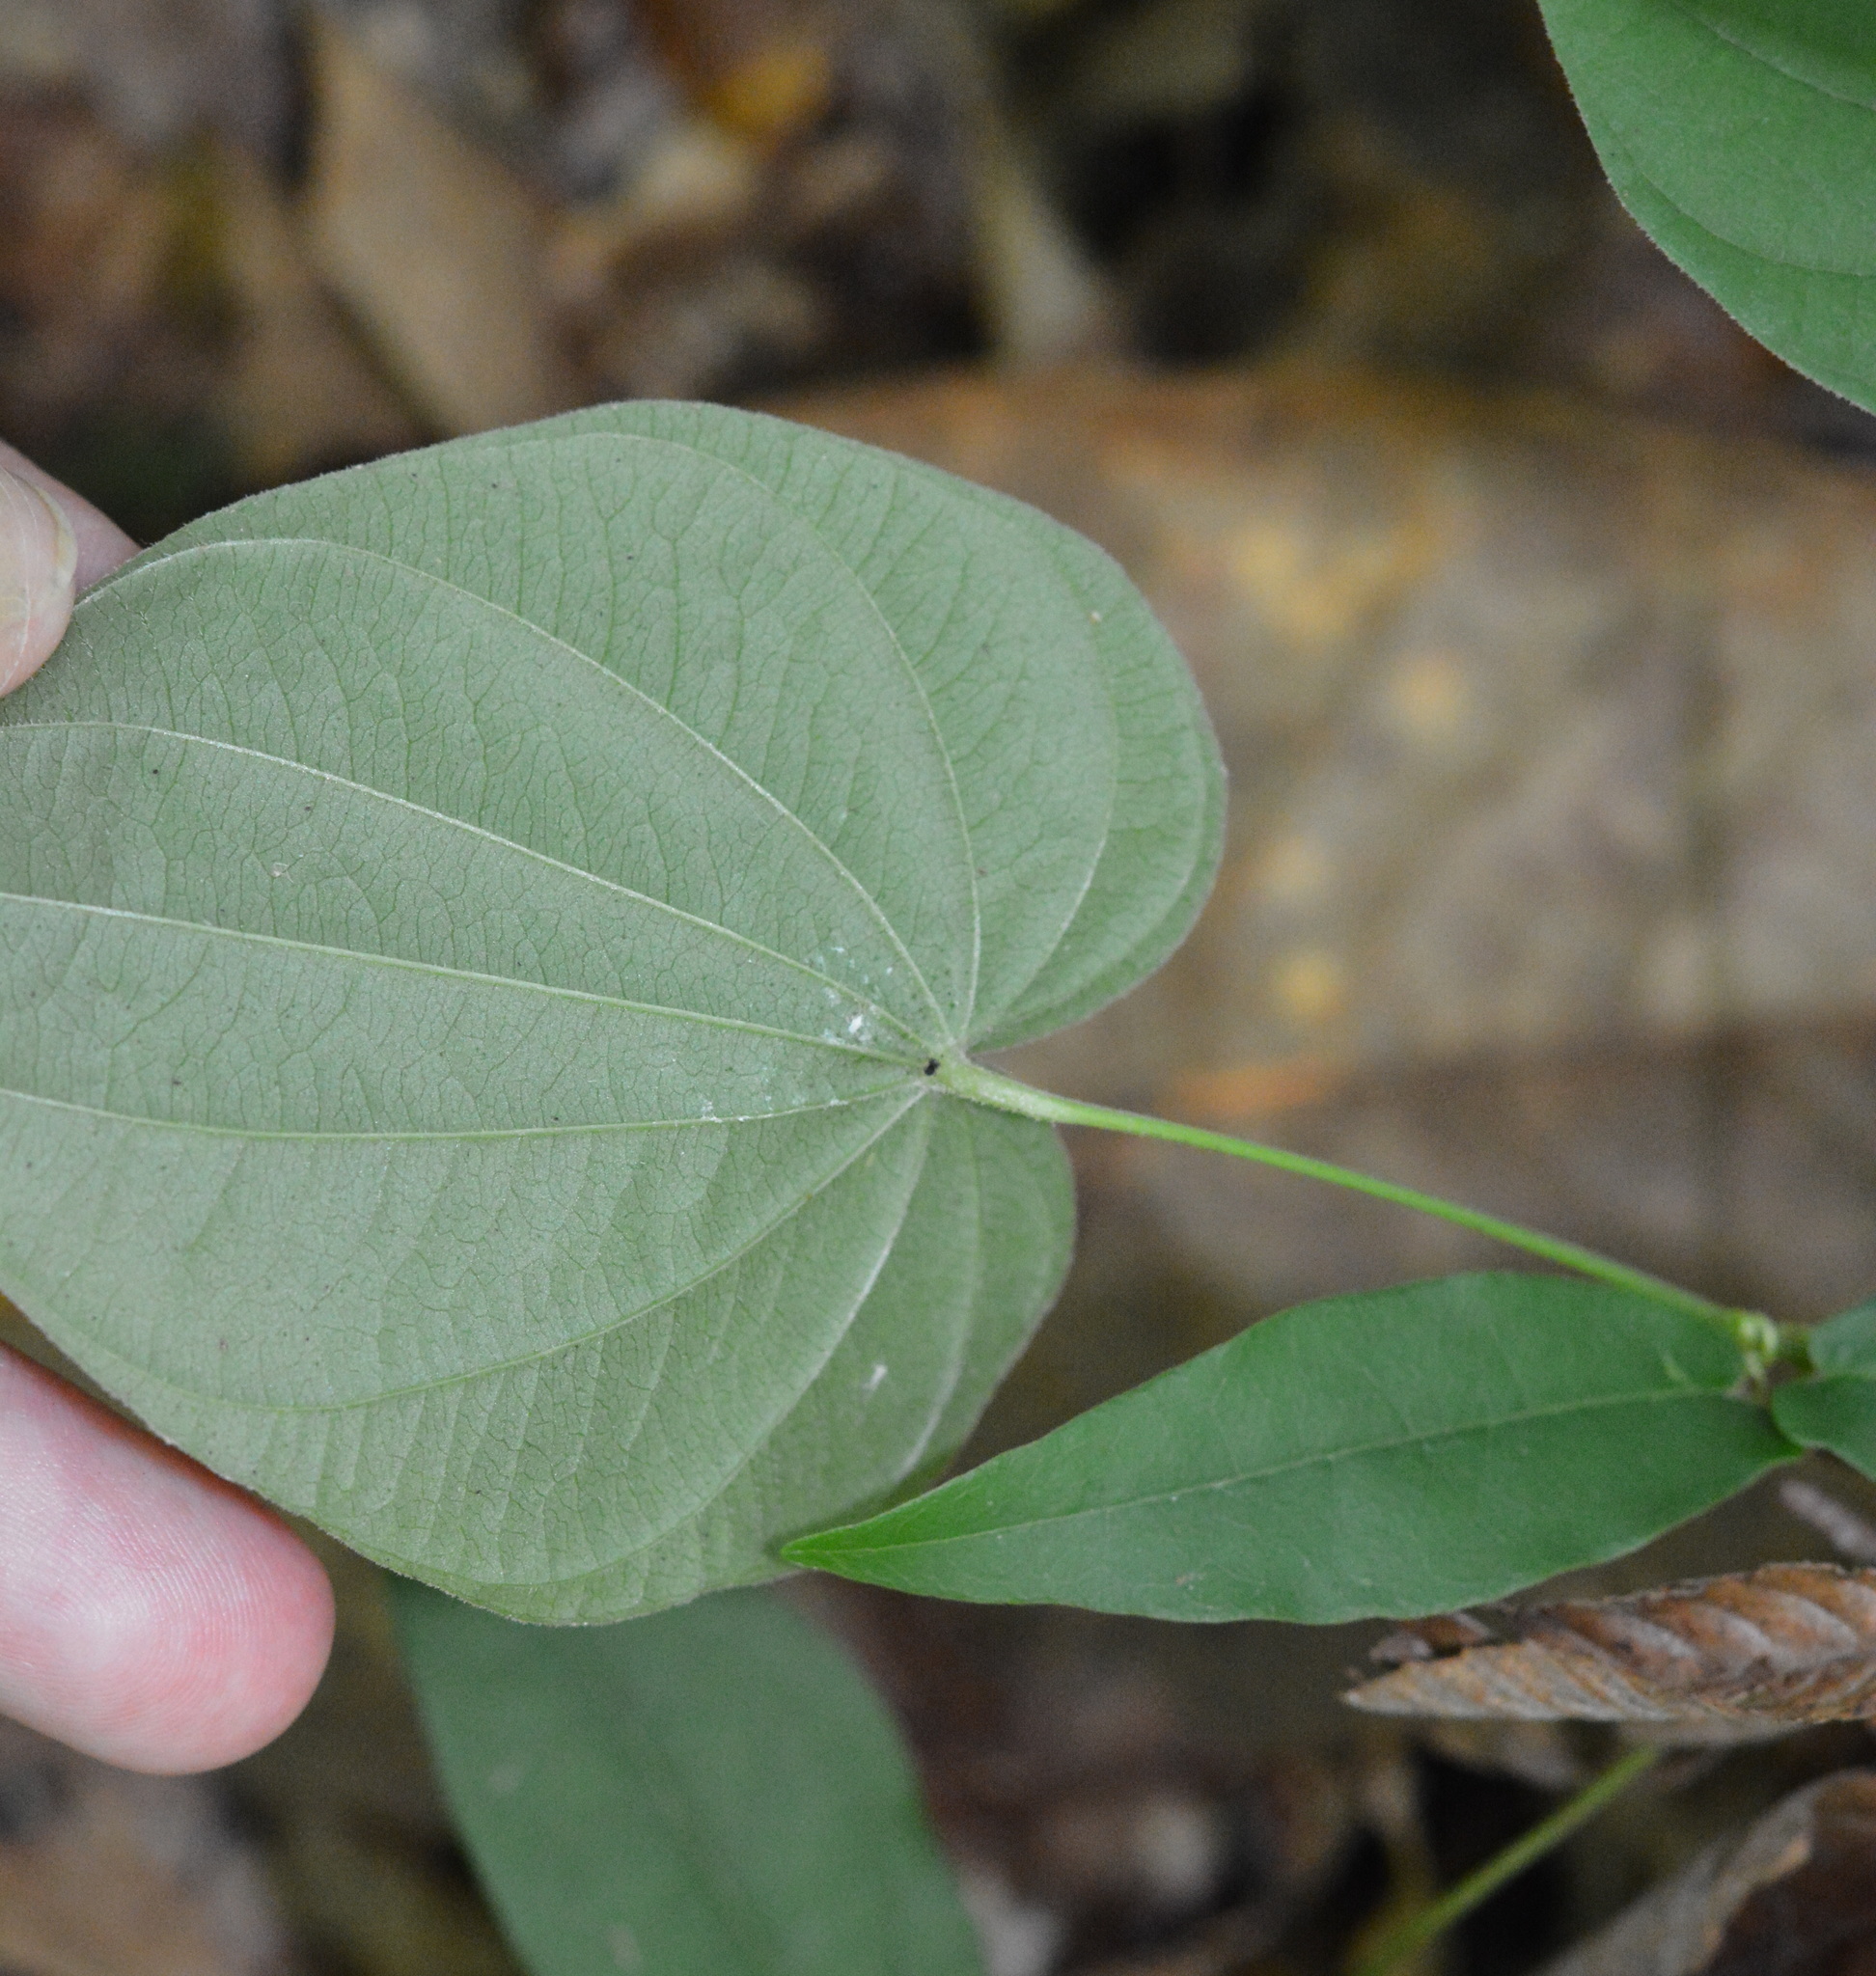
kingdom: Plantae
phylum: Tracheophyta
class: Liliopsida
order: Dioscoreales
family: Dioscoreaceae
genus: Dioscorea
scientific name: Dioscorea villosa
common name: Wild yam
